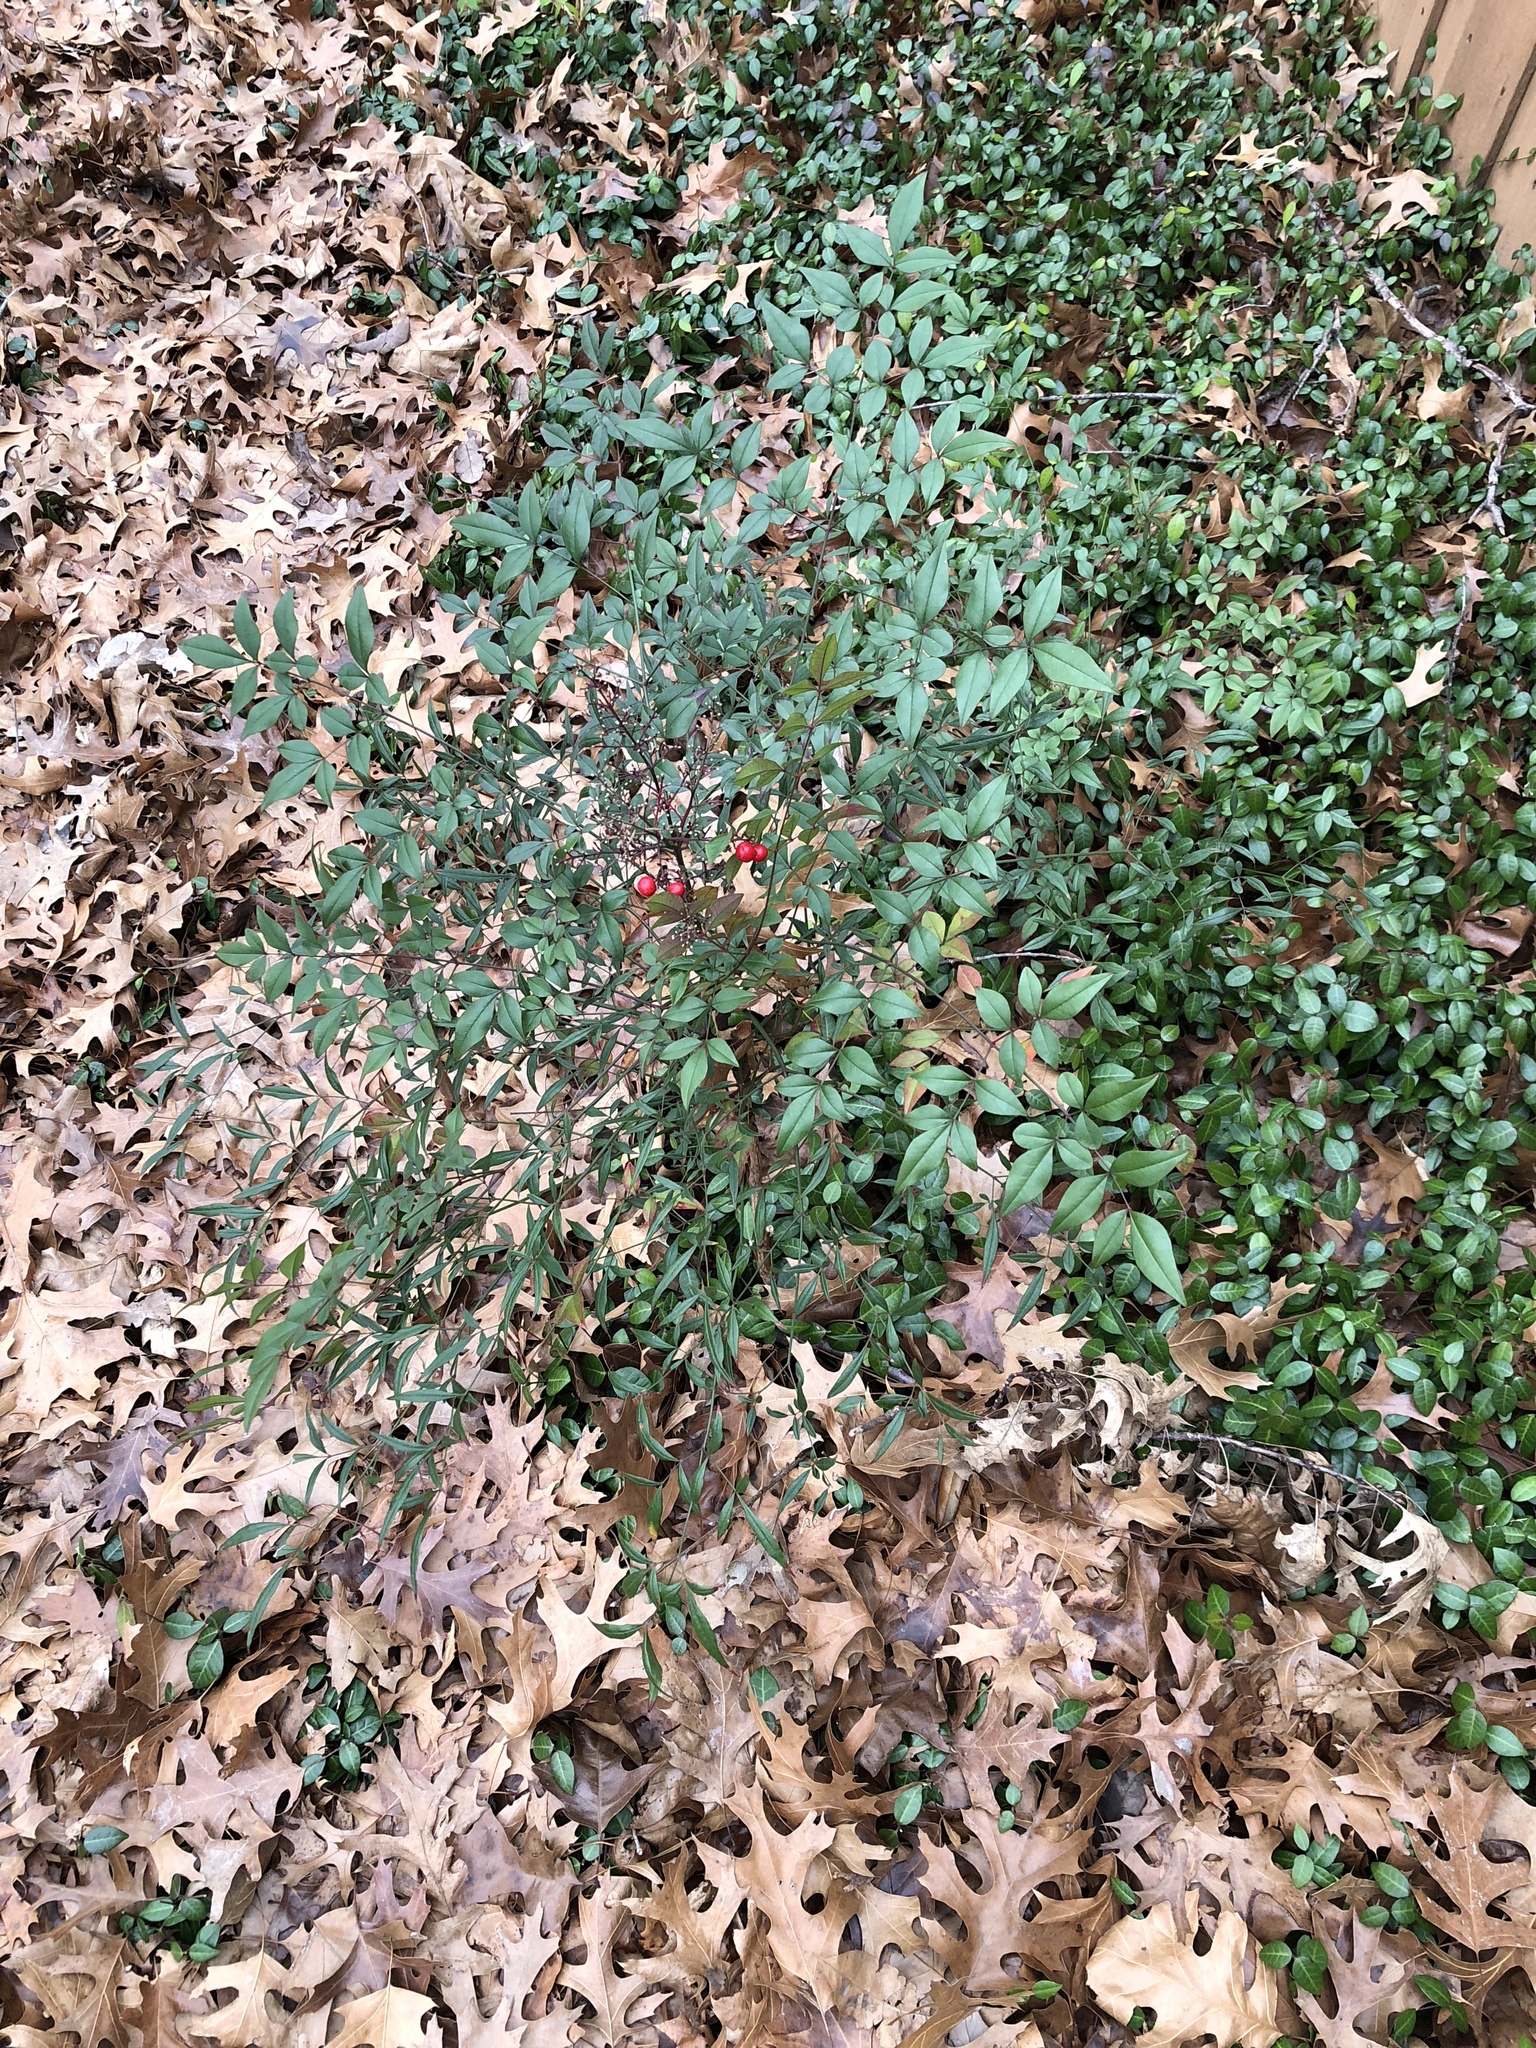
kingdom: Plantae
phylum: Tracheophyta
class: Magnoliopsida
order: Ranunculales
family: Berberidaceae
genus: Nandina
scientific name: Nandina domestica
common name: Sacred bamboo
